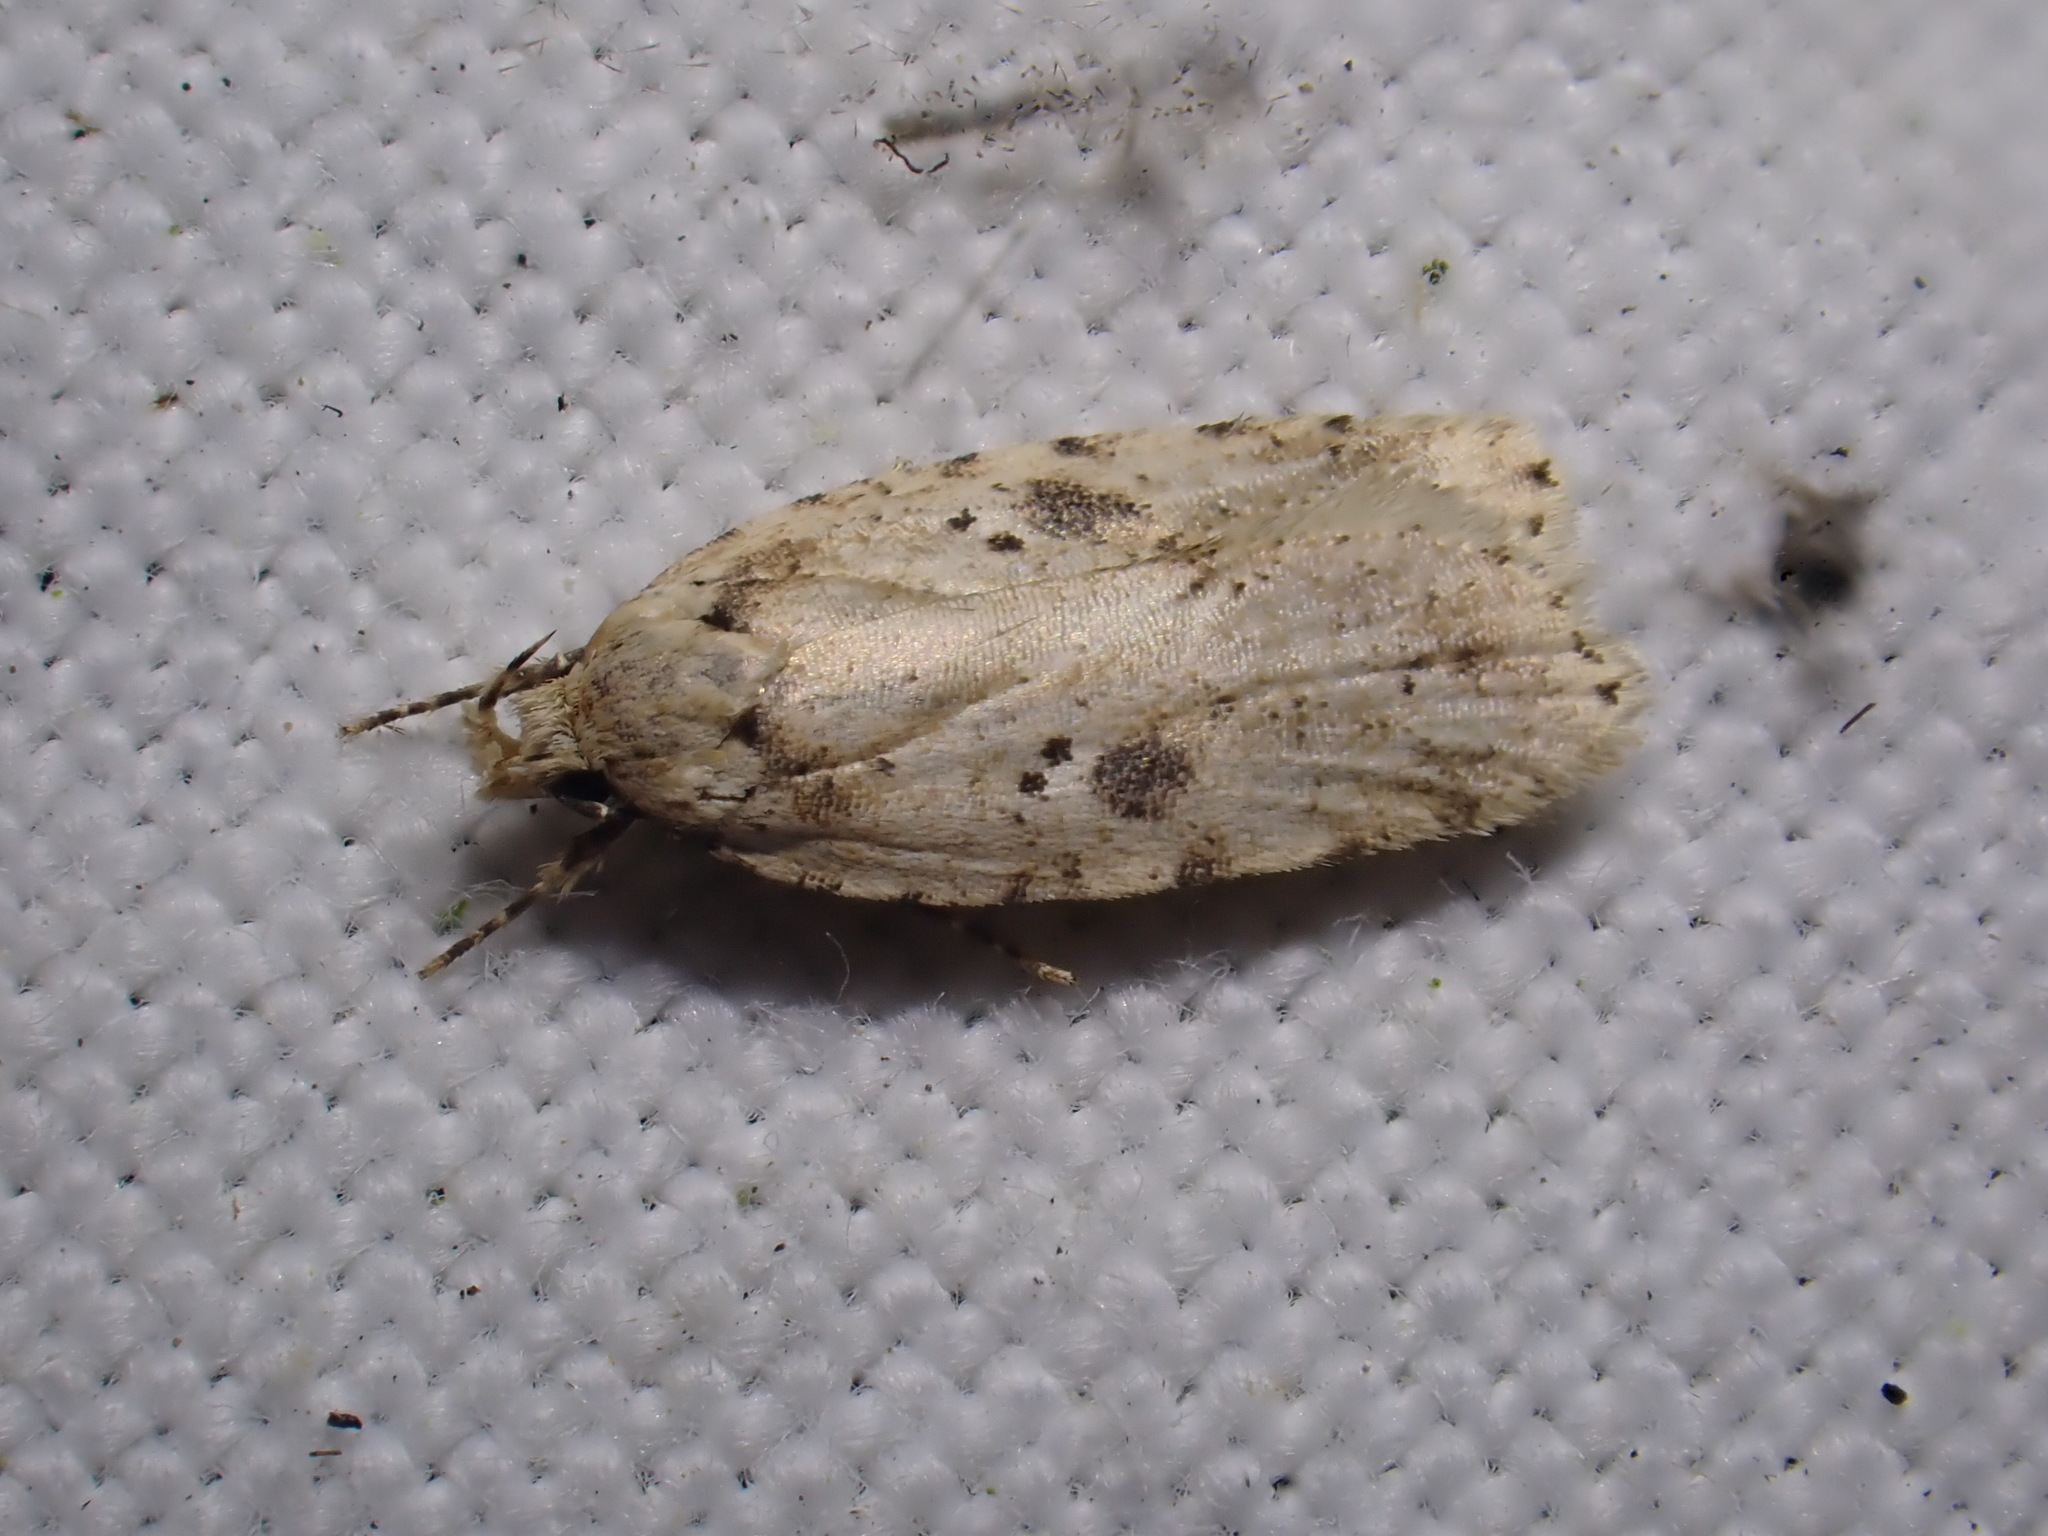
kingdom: Animalia
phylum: Arthropoda
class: Insecta
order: Lepidoptera
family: Depressariidae
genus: Agonopterix
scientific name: Agonopterix arenella
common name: Brindled flat-body
